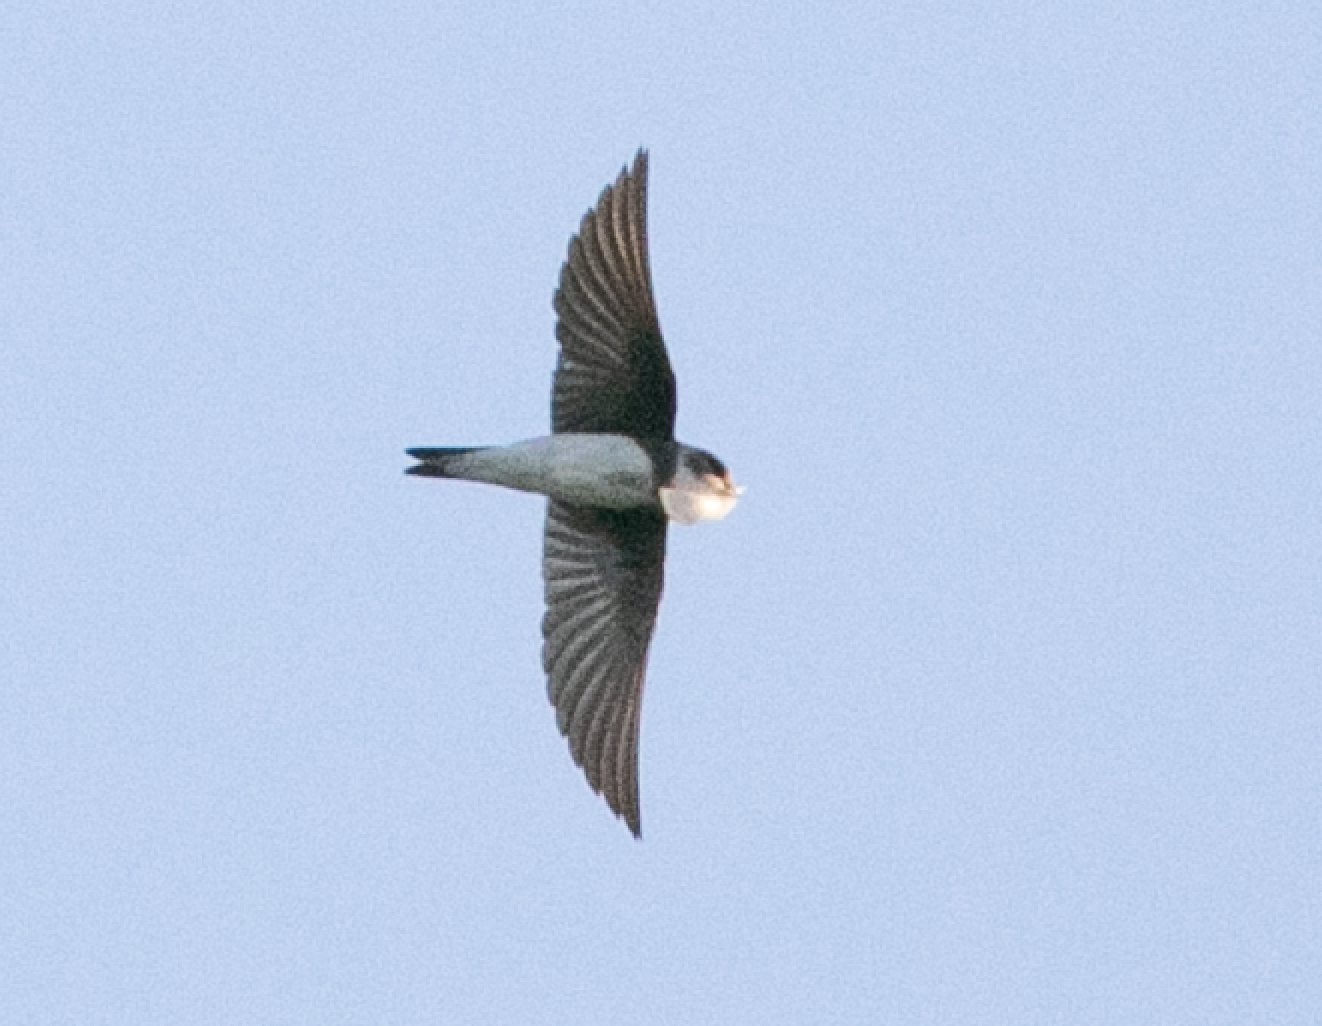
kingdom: Animalia
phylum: Chordata
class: Aves
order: Passeriformes
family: Hirundinidae
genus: Riparia
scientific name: Riparia riparia
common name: Sand martin
